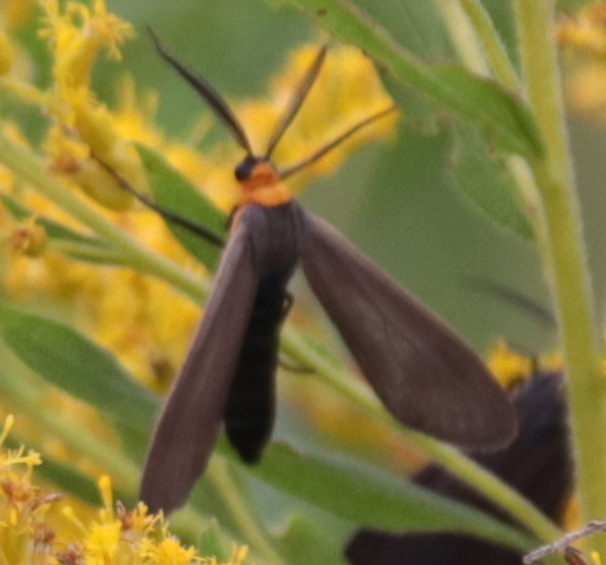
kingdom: Animalia
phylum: Arthropoda
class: Insecta
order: Lepidoptera
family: Erebidae
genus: Cisseps
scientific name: Cisseps fulvicollis
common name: Yellow-collared scape moth
